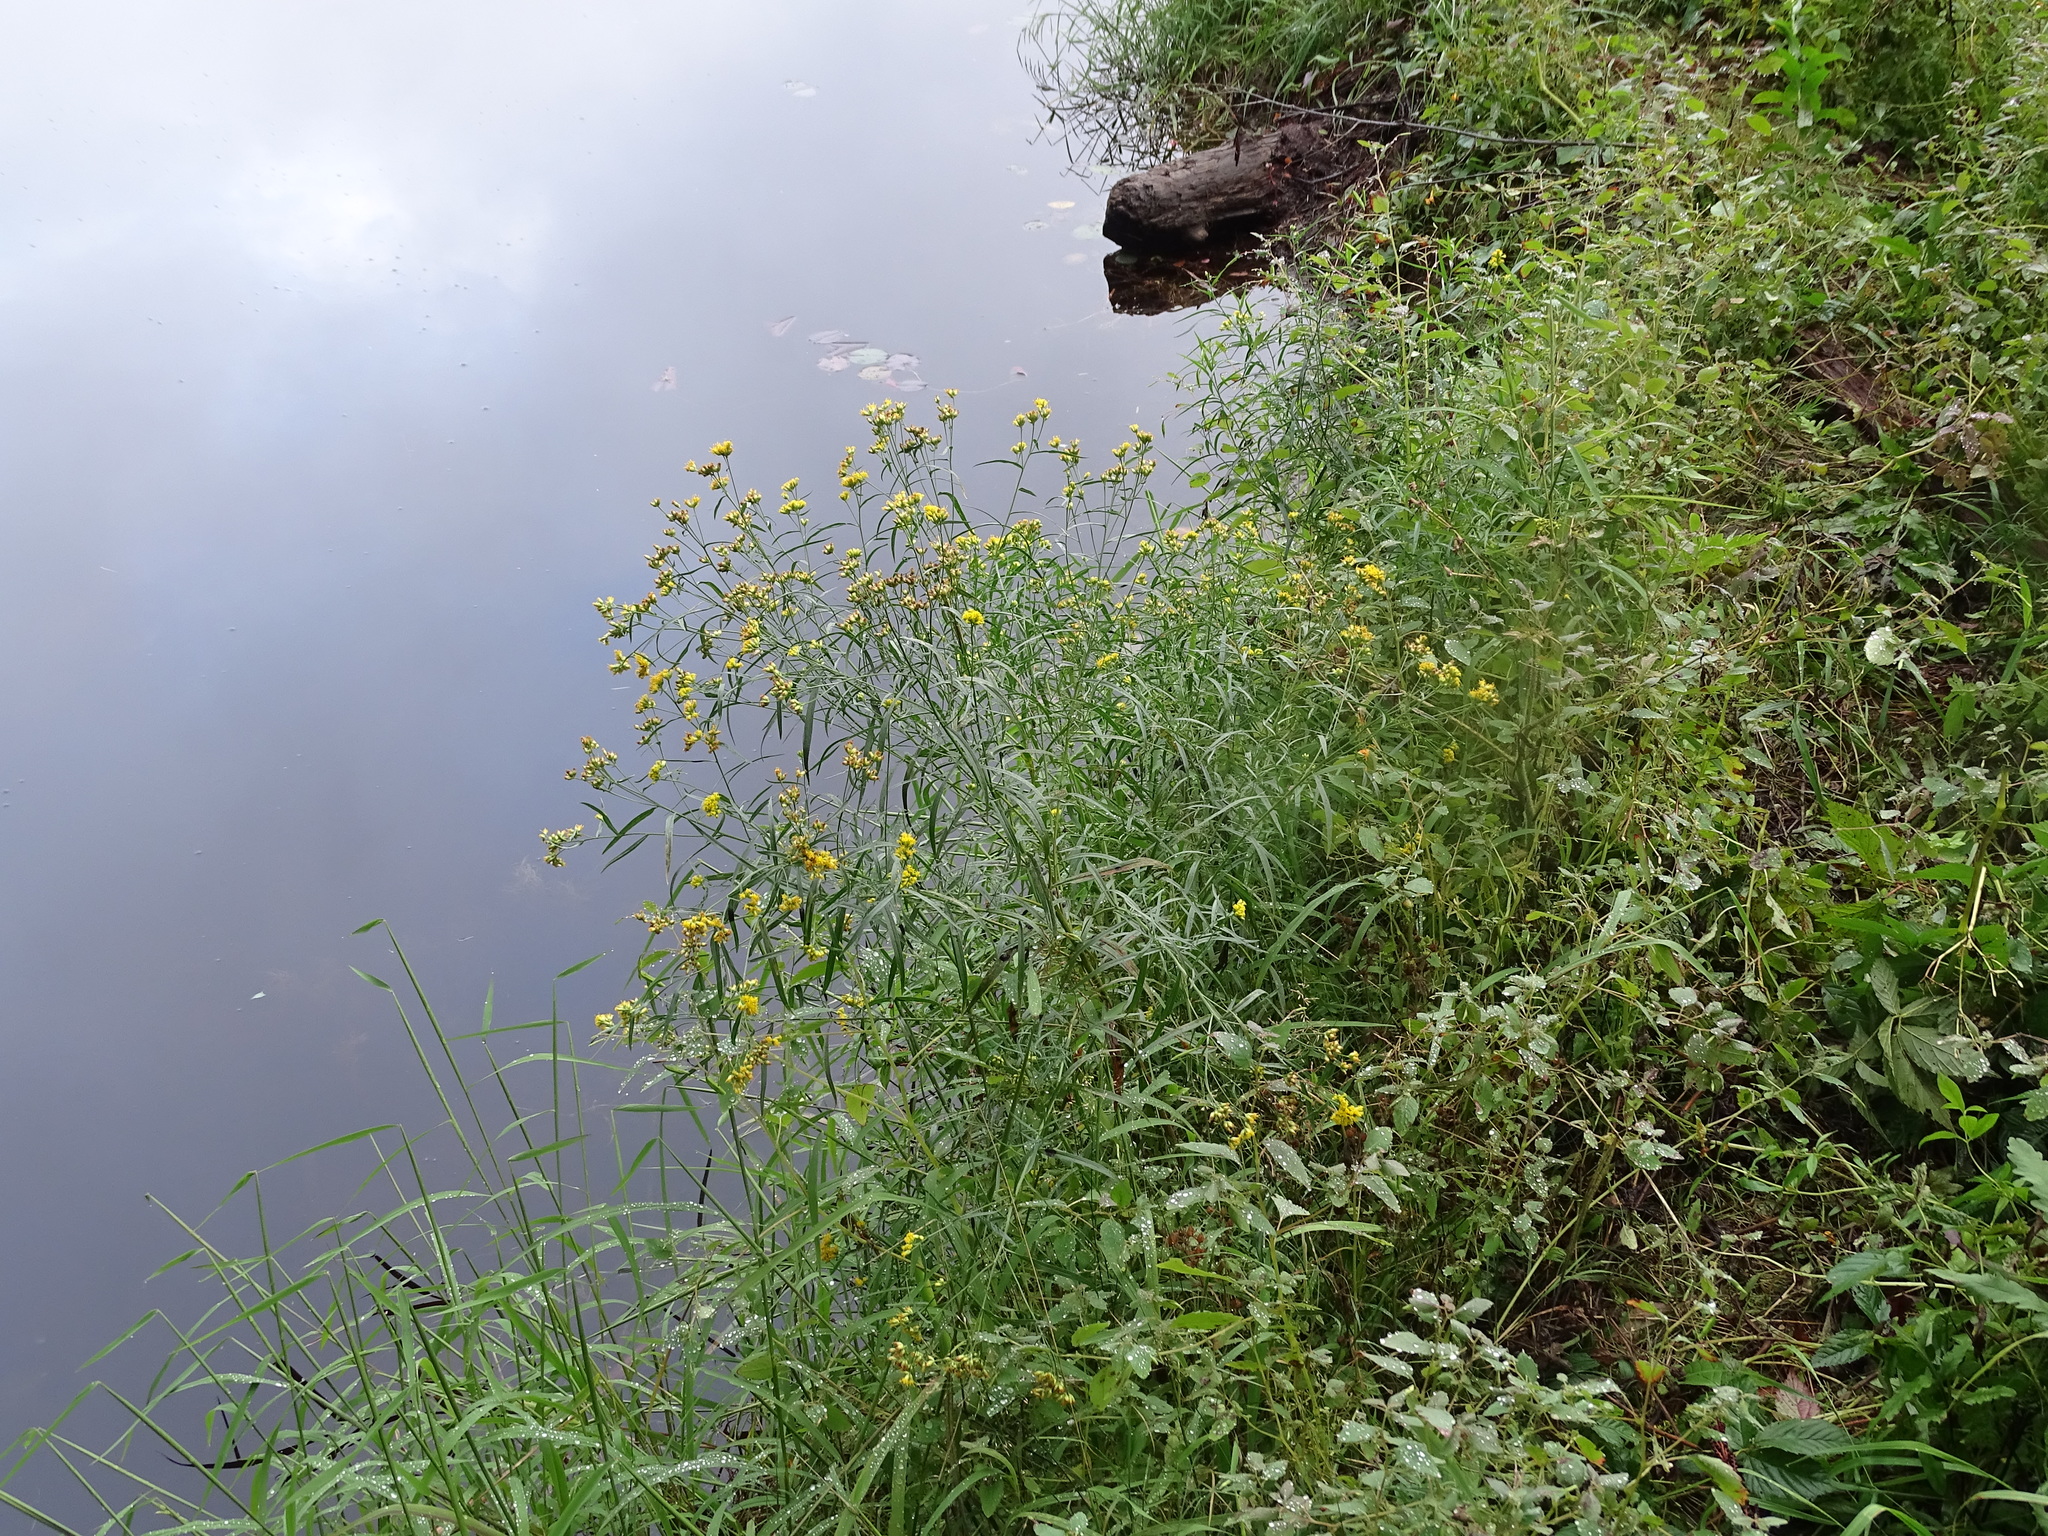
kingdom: Plantae
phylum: Tracheophyta
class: Magnoliopsida
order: Asterales
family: Asteraceae
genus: Euthamia
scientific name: Euthamia graminifolia
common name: Common goldentop
